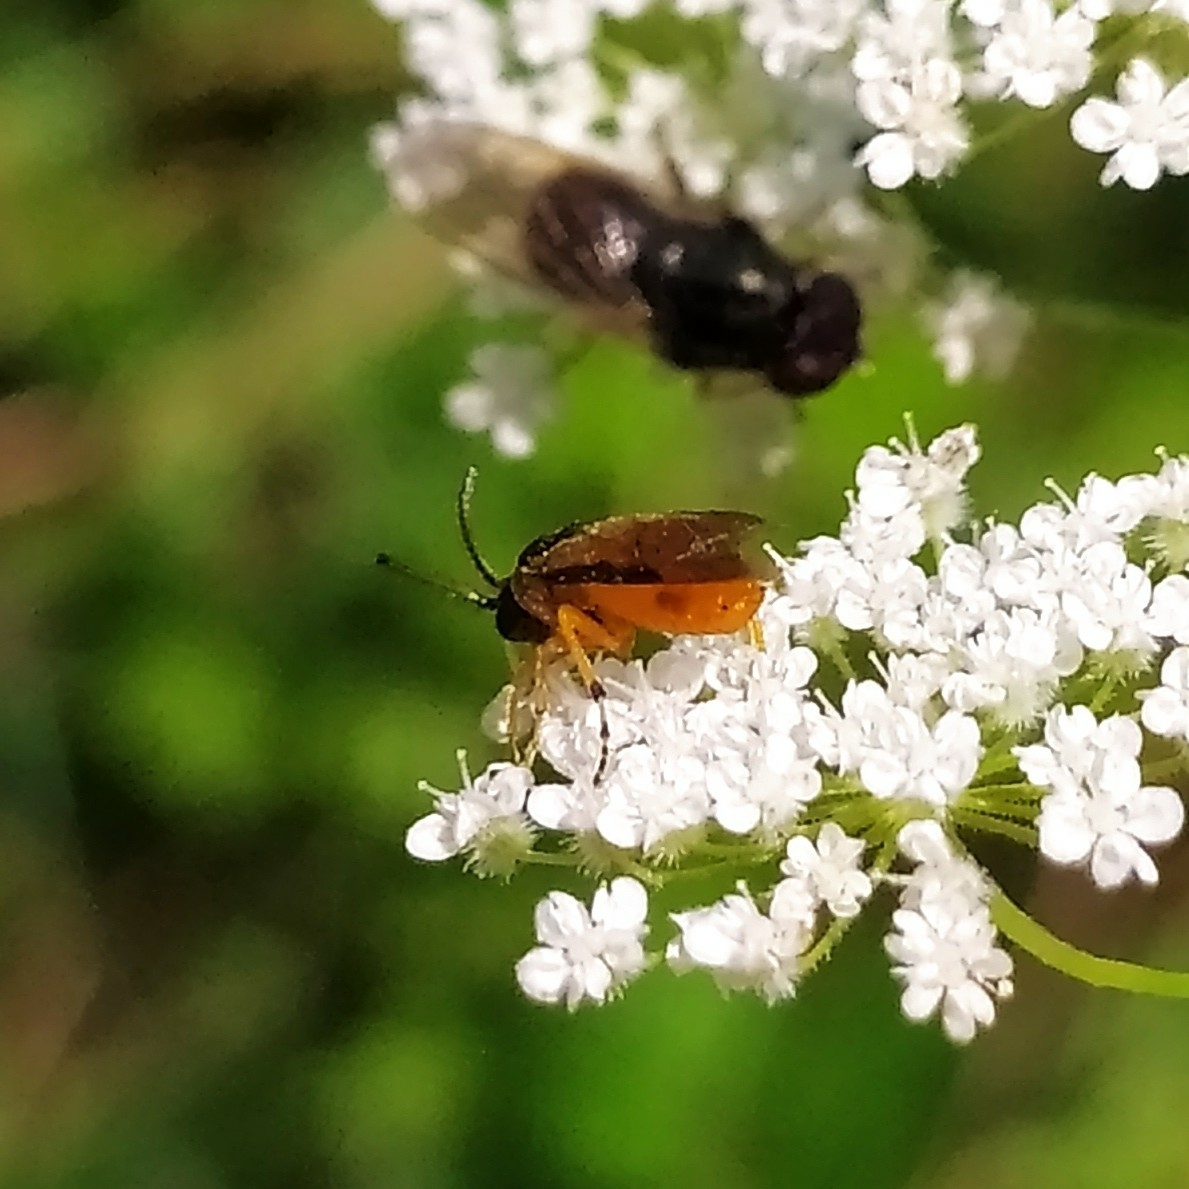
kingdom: Animalia
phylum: Arthropoda
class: Insecta
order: Hymenoptera
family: Argidae
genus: Arge
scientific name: Arge ochropus
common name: Argid sawfly
